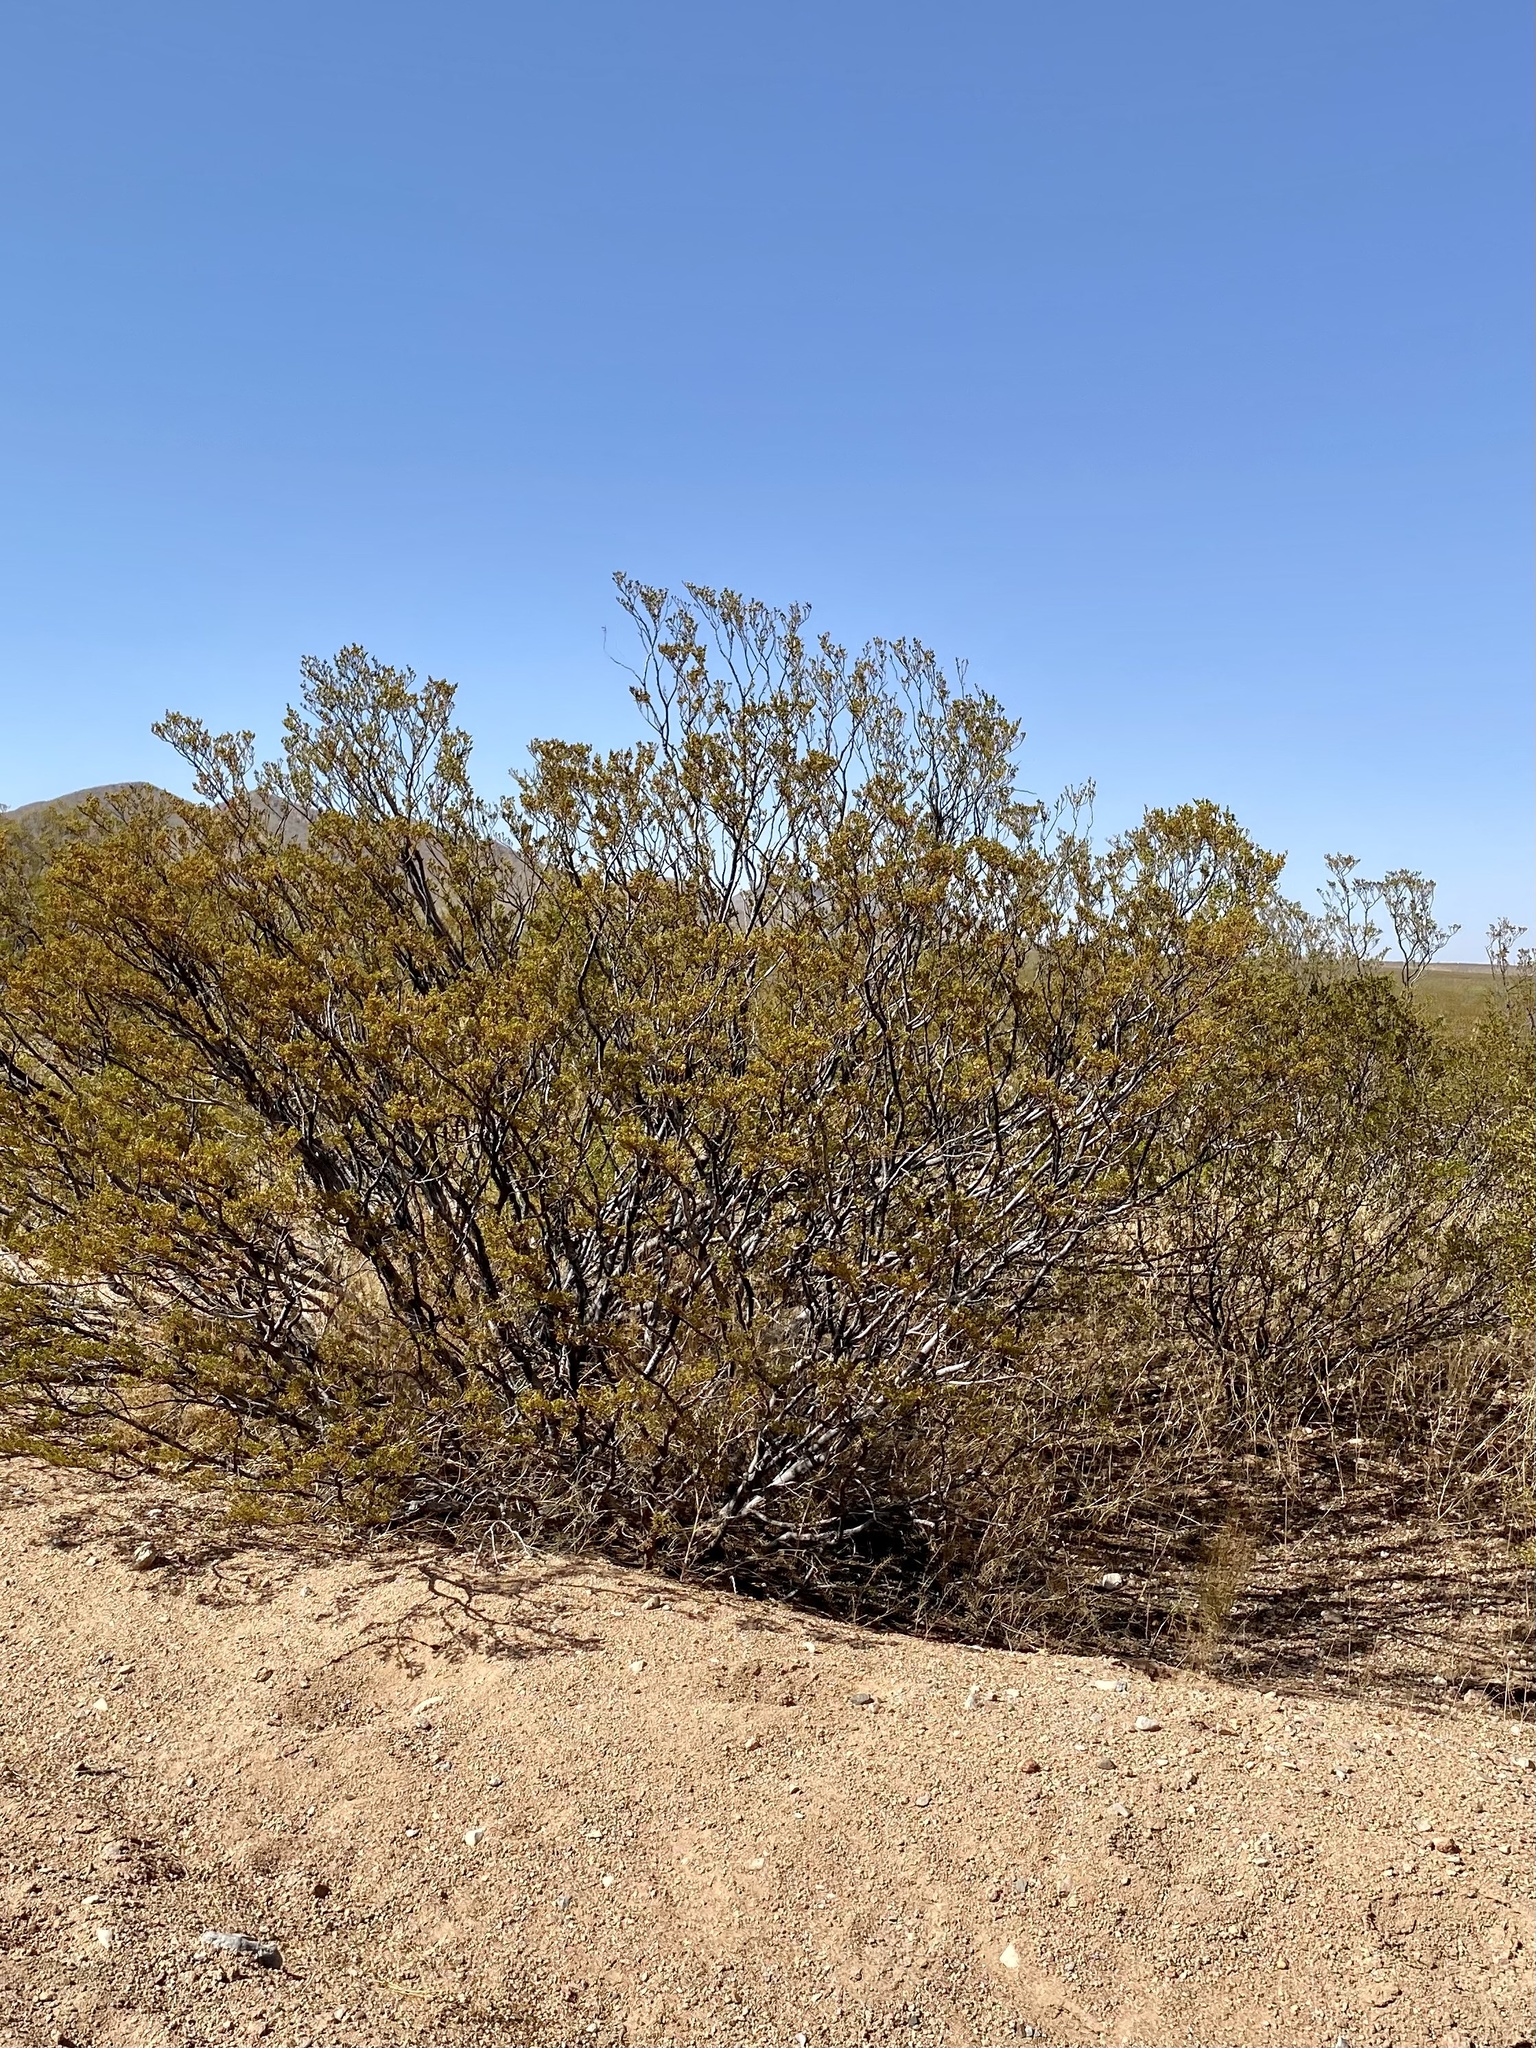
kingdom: Plantae
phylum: Tracheophyta
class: Magnoliopsida
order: Zygophyllales
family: Zygophyllaceae
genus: Larrea
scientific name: Larrea tridentata
